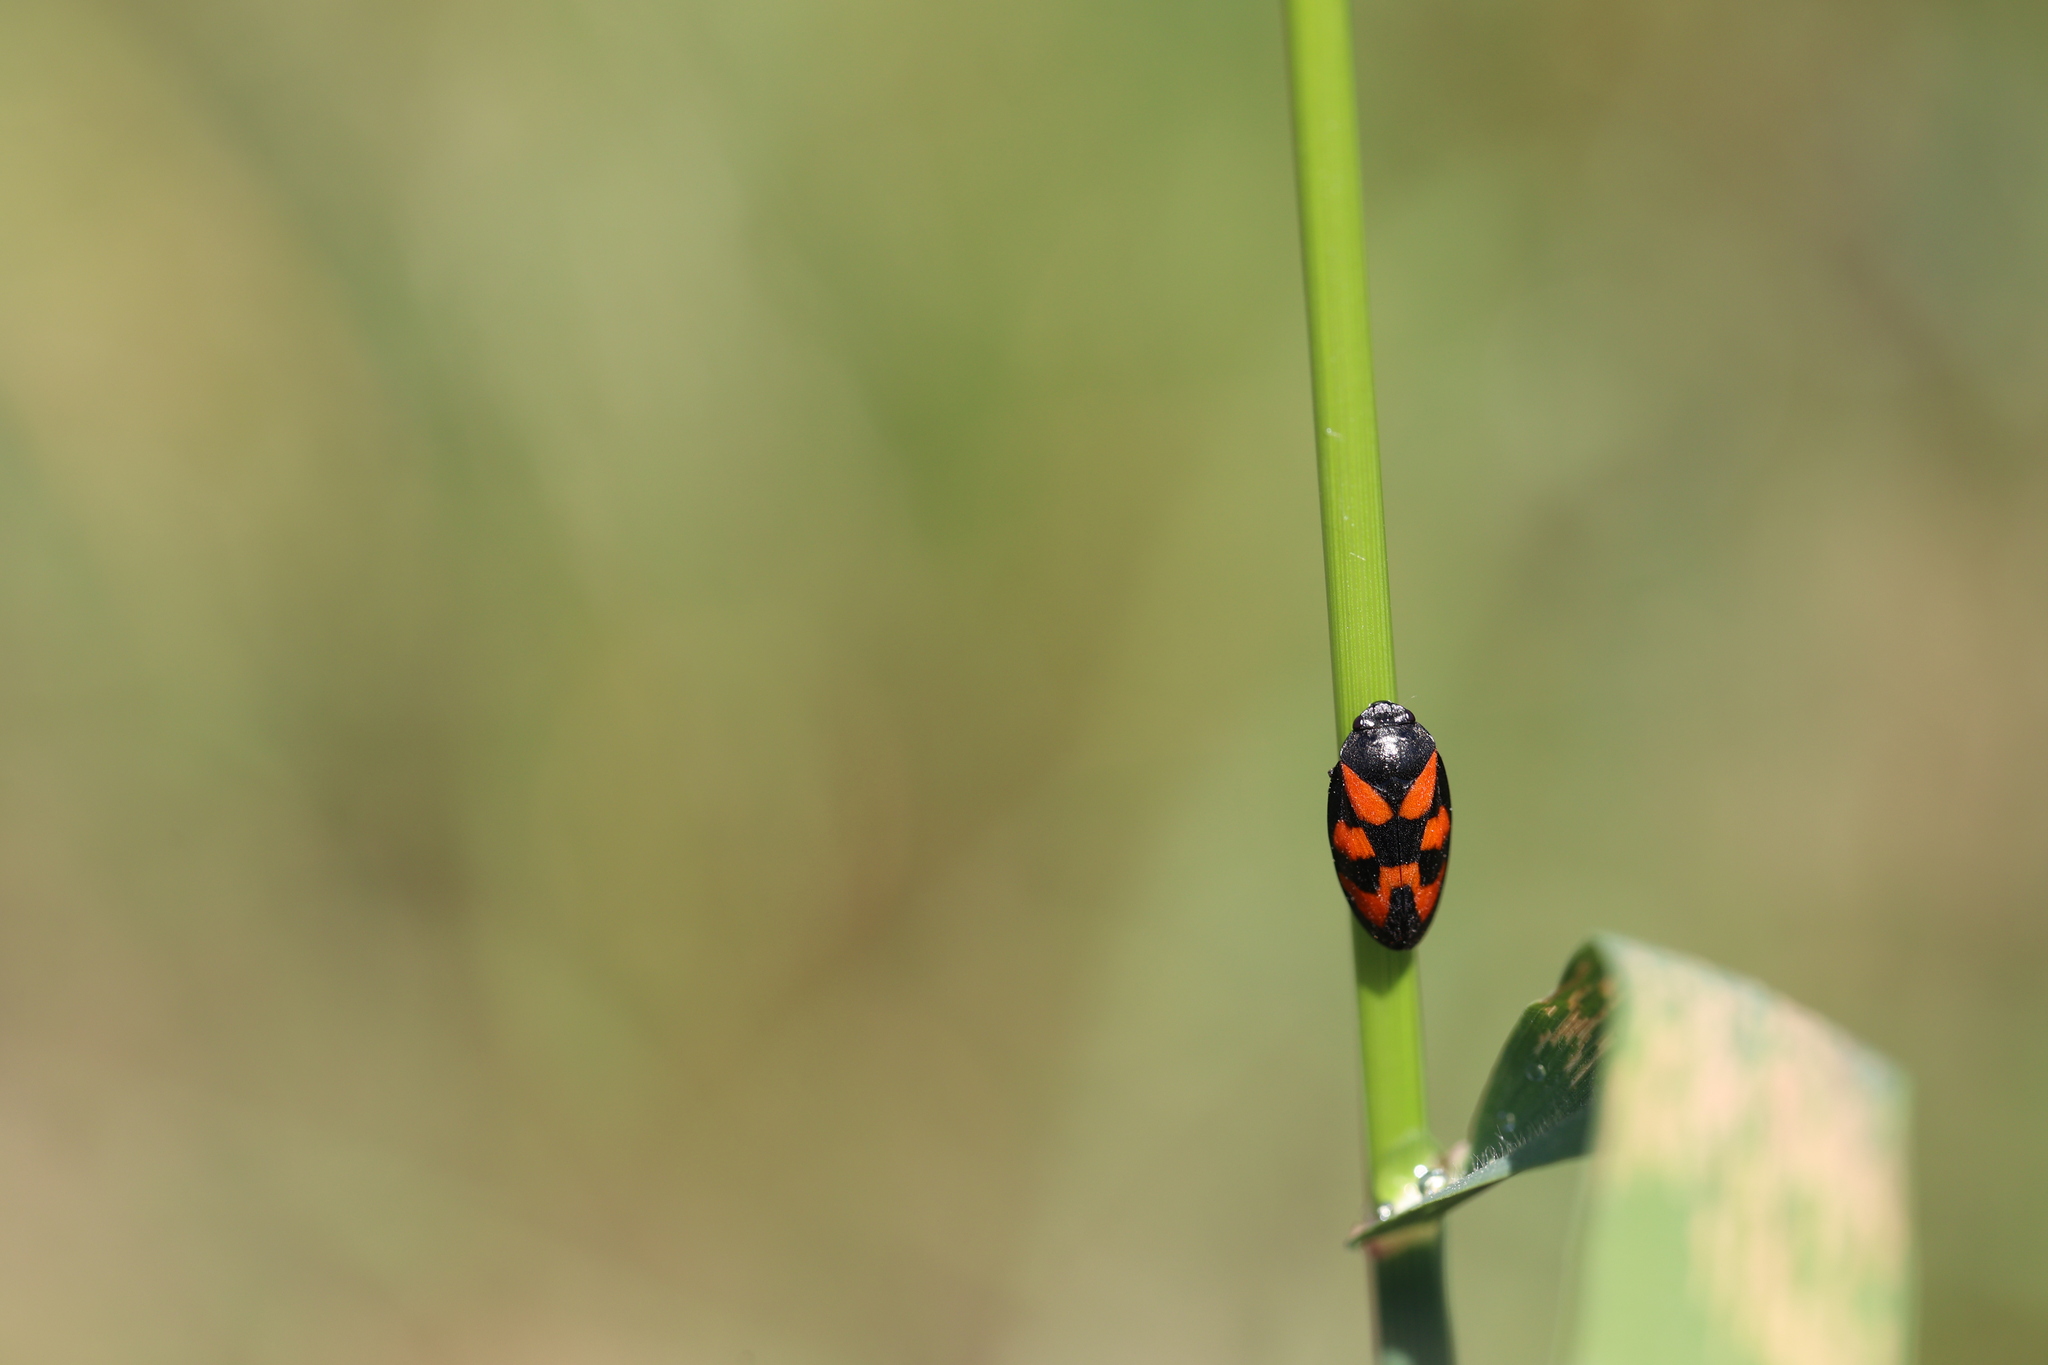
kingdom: Animalia
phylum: Arthropoda
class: Insecta
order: Hemiptera
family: Cercopidae
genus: Cercopis
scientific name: Cercopis vulnerata
